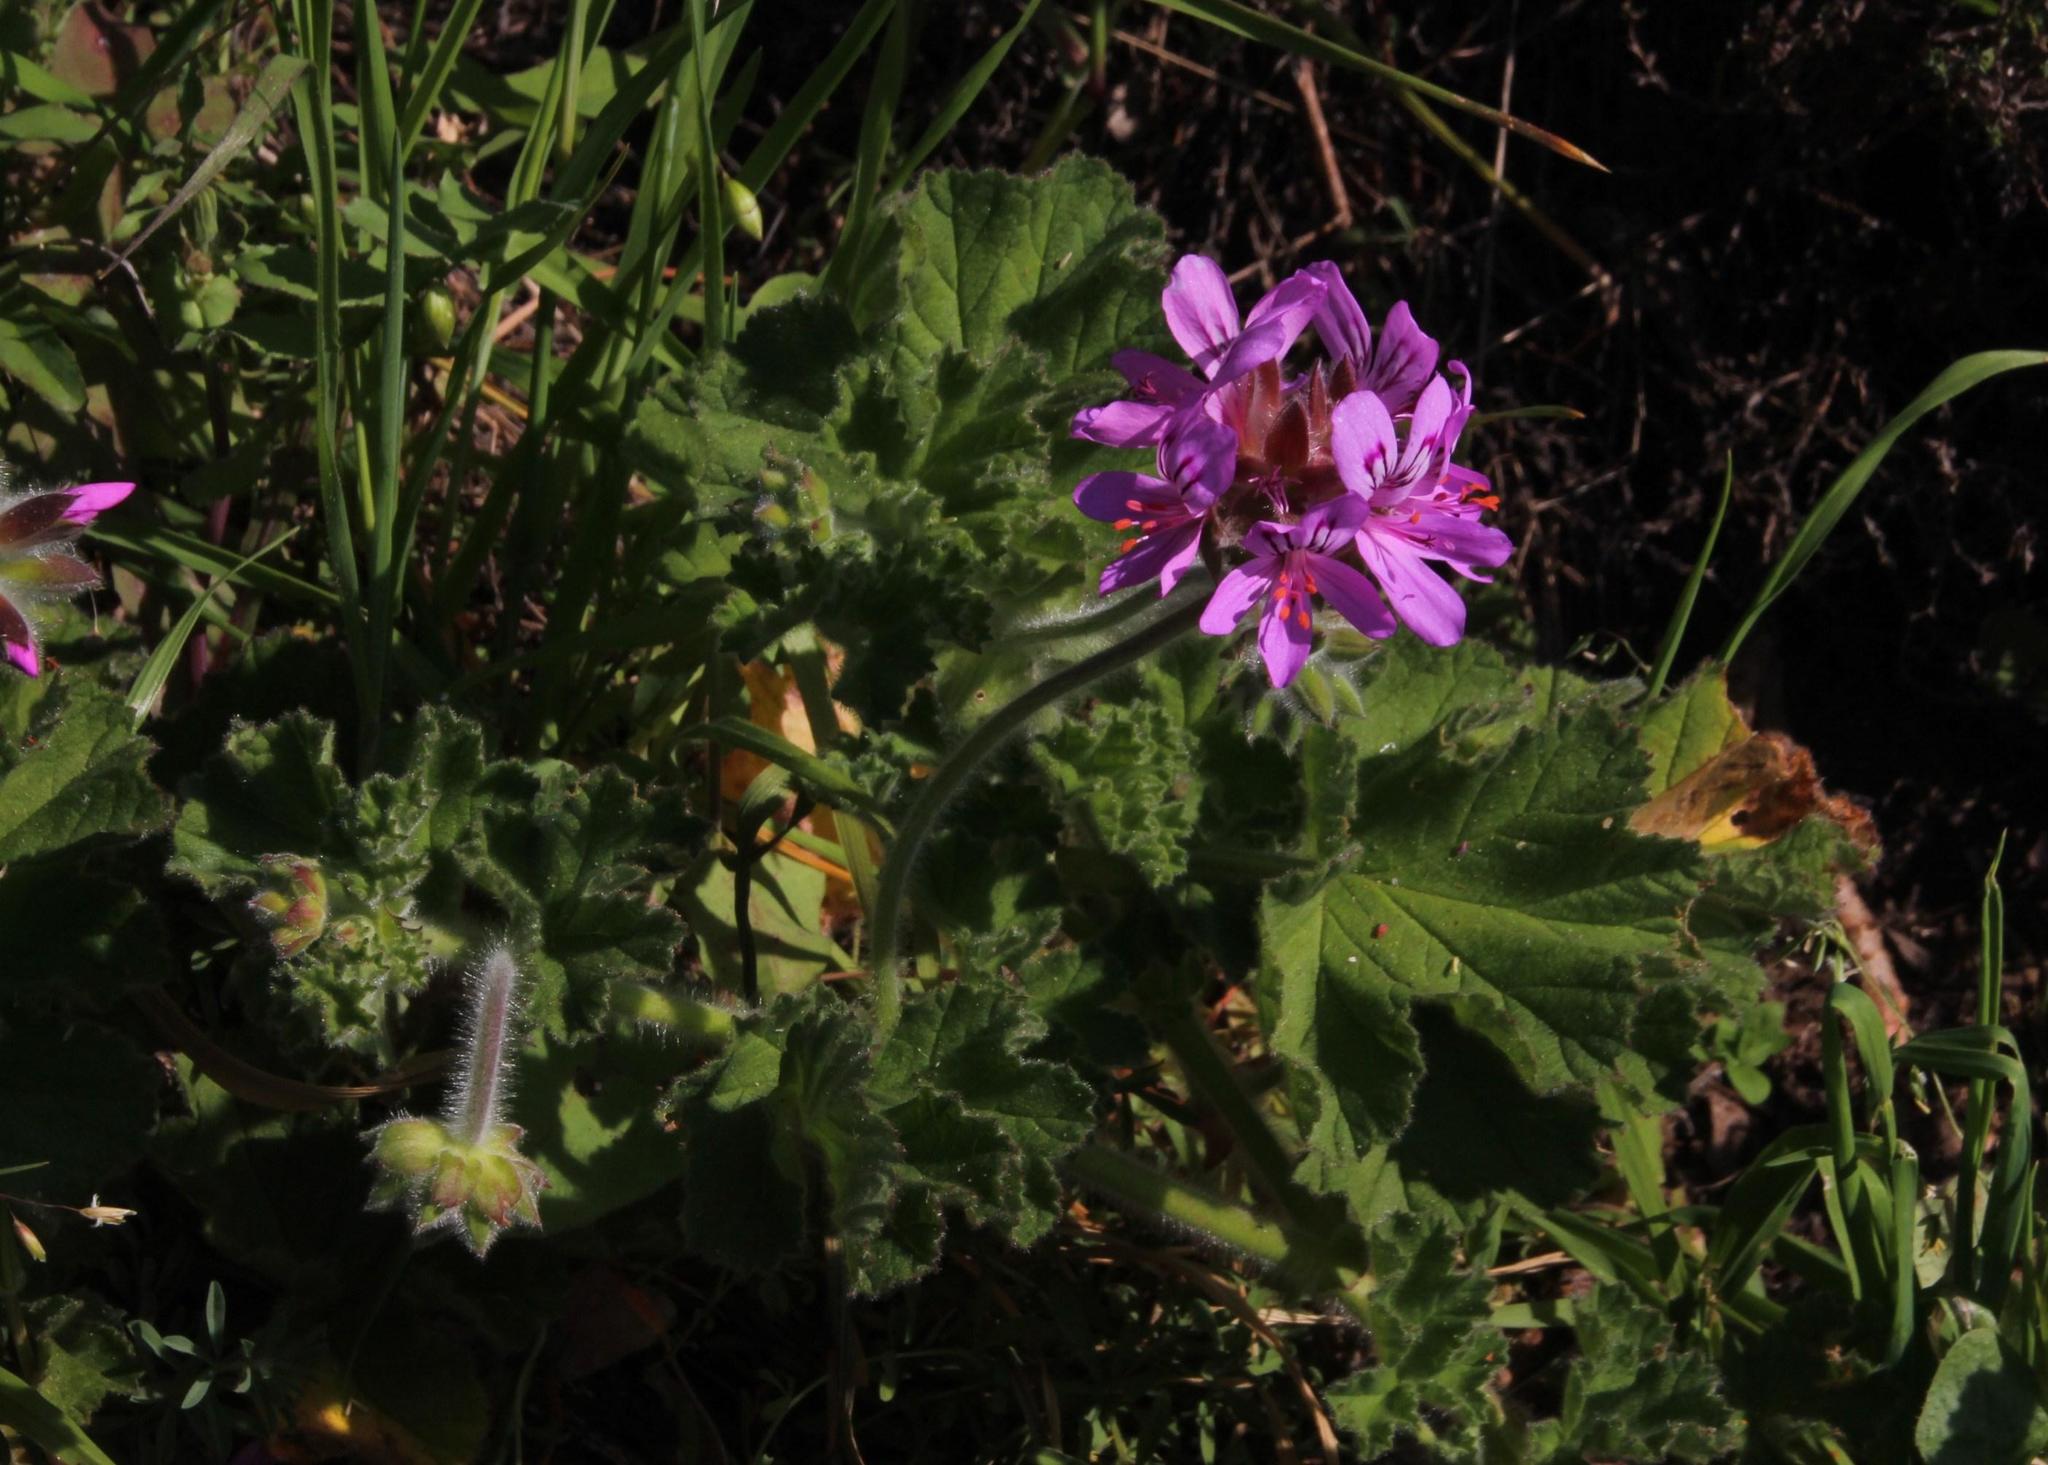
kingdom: Plantae
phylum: Tracheophyta
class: Magnoliopsida
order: Geraniales
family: Geraniaceae
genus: Pelargonium
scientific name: Pelargonium capitatum
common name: Rose scented geranium
